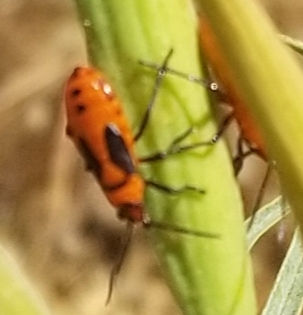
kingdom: Animalia
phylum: Arthropoda
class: Insecta
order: Hemiptera
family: Lygaeidae
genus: Oncopeltus
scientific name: Oncopeltus fasciatus
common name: Large milkweed bug
